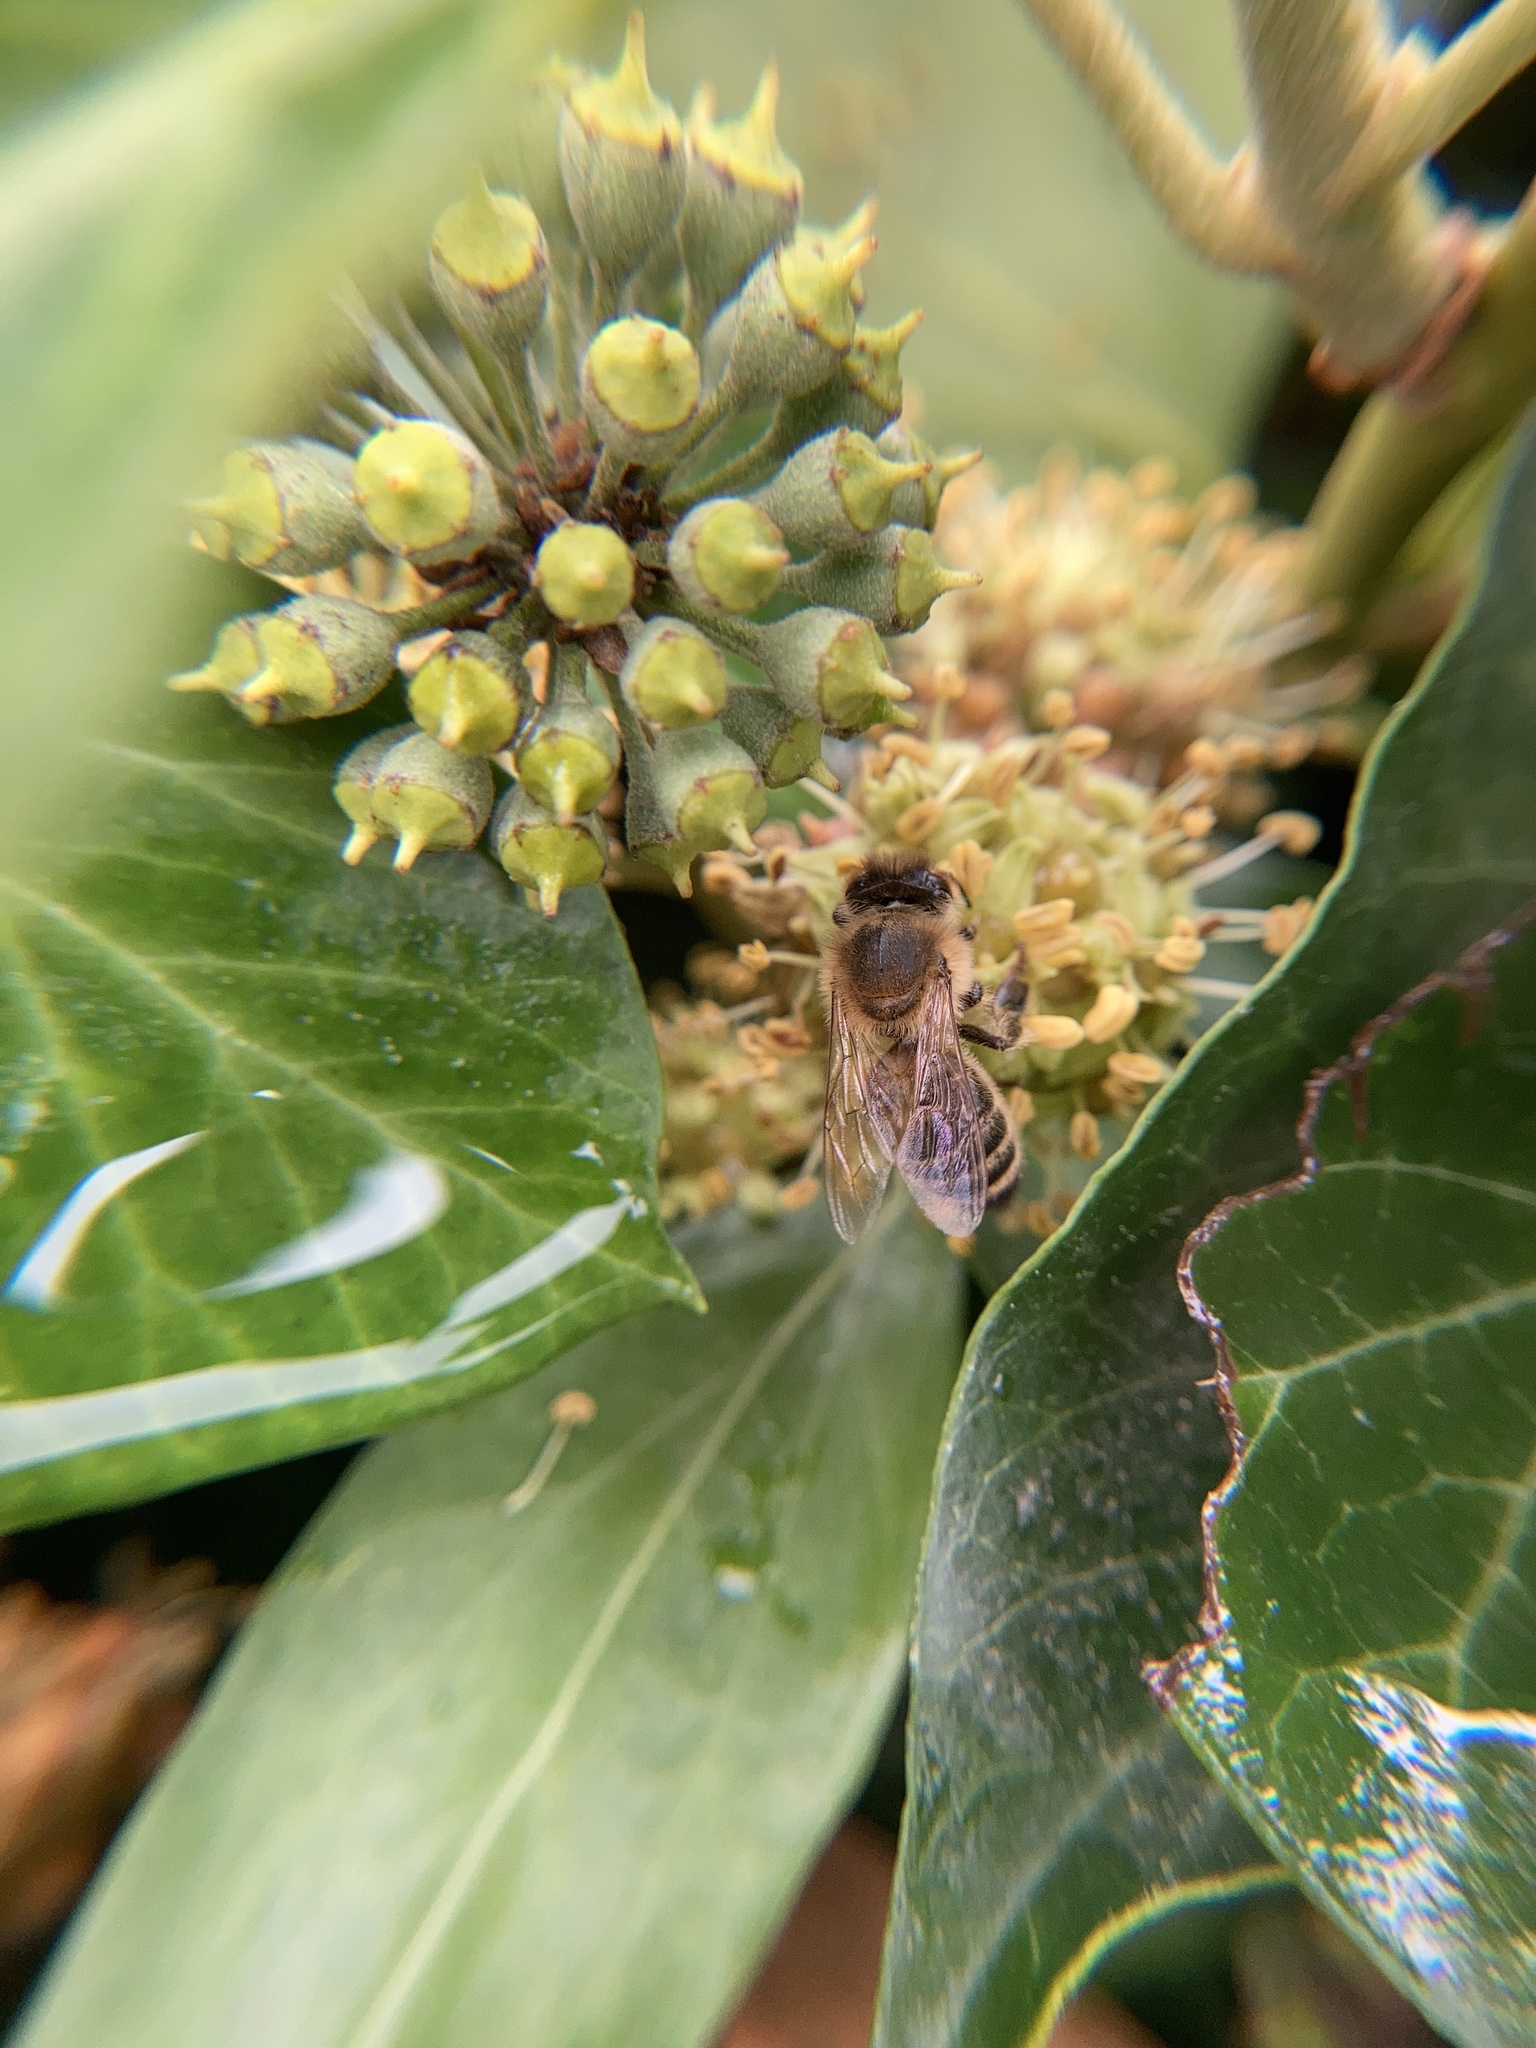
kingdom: Animalia
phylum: Arthropoda
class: Insecta
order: Hymenoptera
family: Apidae
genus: Apis
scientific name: Apis mellifera
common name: Honey bee
